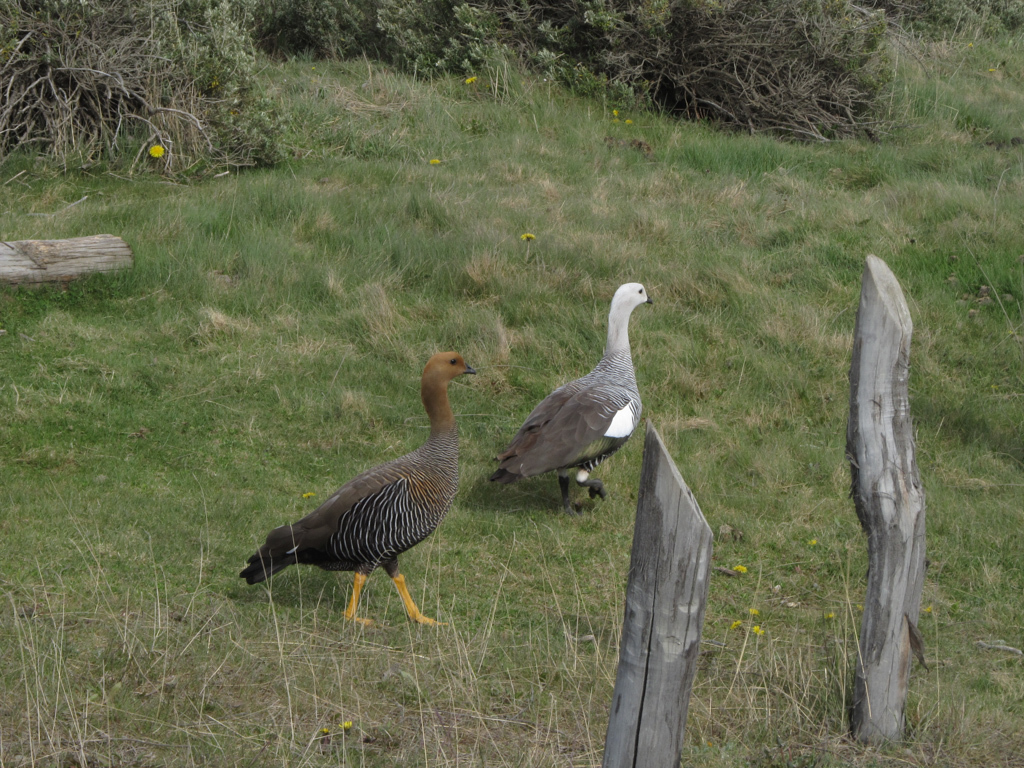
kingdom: Animalia
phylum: Chordata
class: Aves
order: Anseriformes
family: Anatidae
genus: Chloephaga
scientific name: Chloephaga picta
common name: Upland goose
